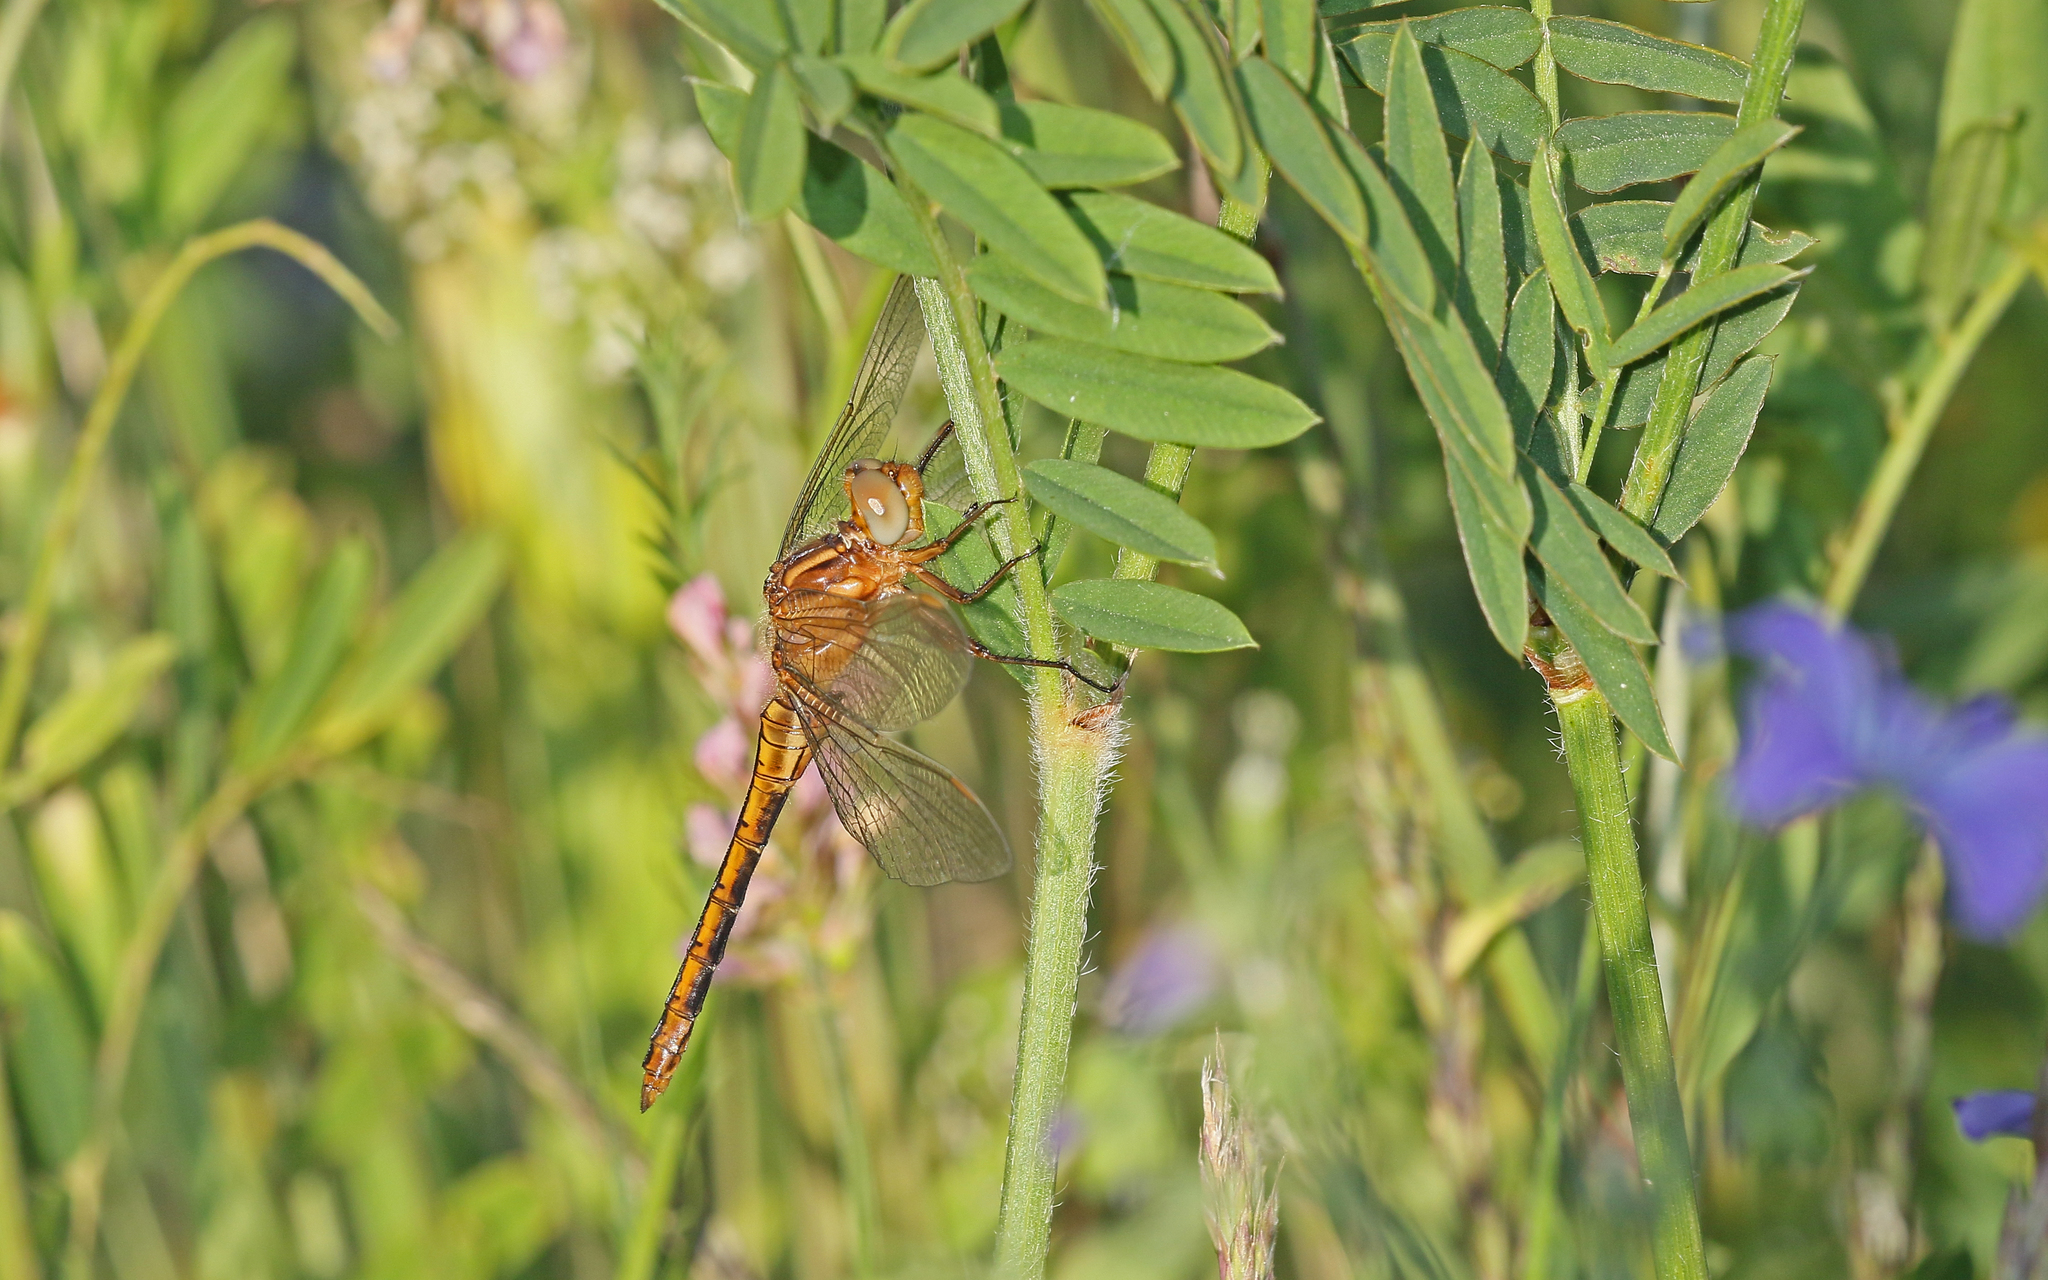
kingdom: Animalia
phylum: Arthropoda
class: Insecta
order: Odonata
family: Libellulidae
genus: Orthetrum
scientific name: Orthetrum coerulescens
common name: Keeled skimmer
